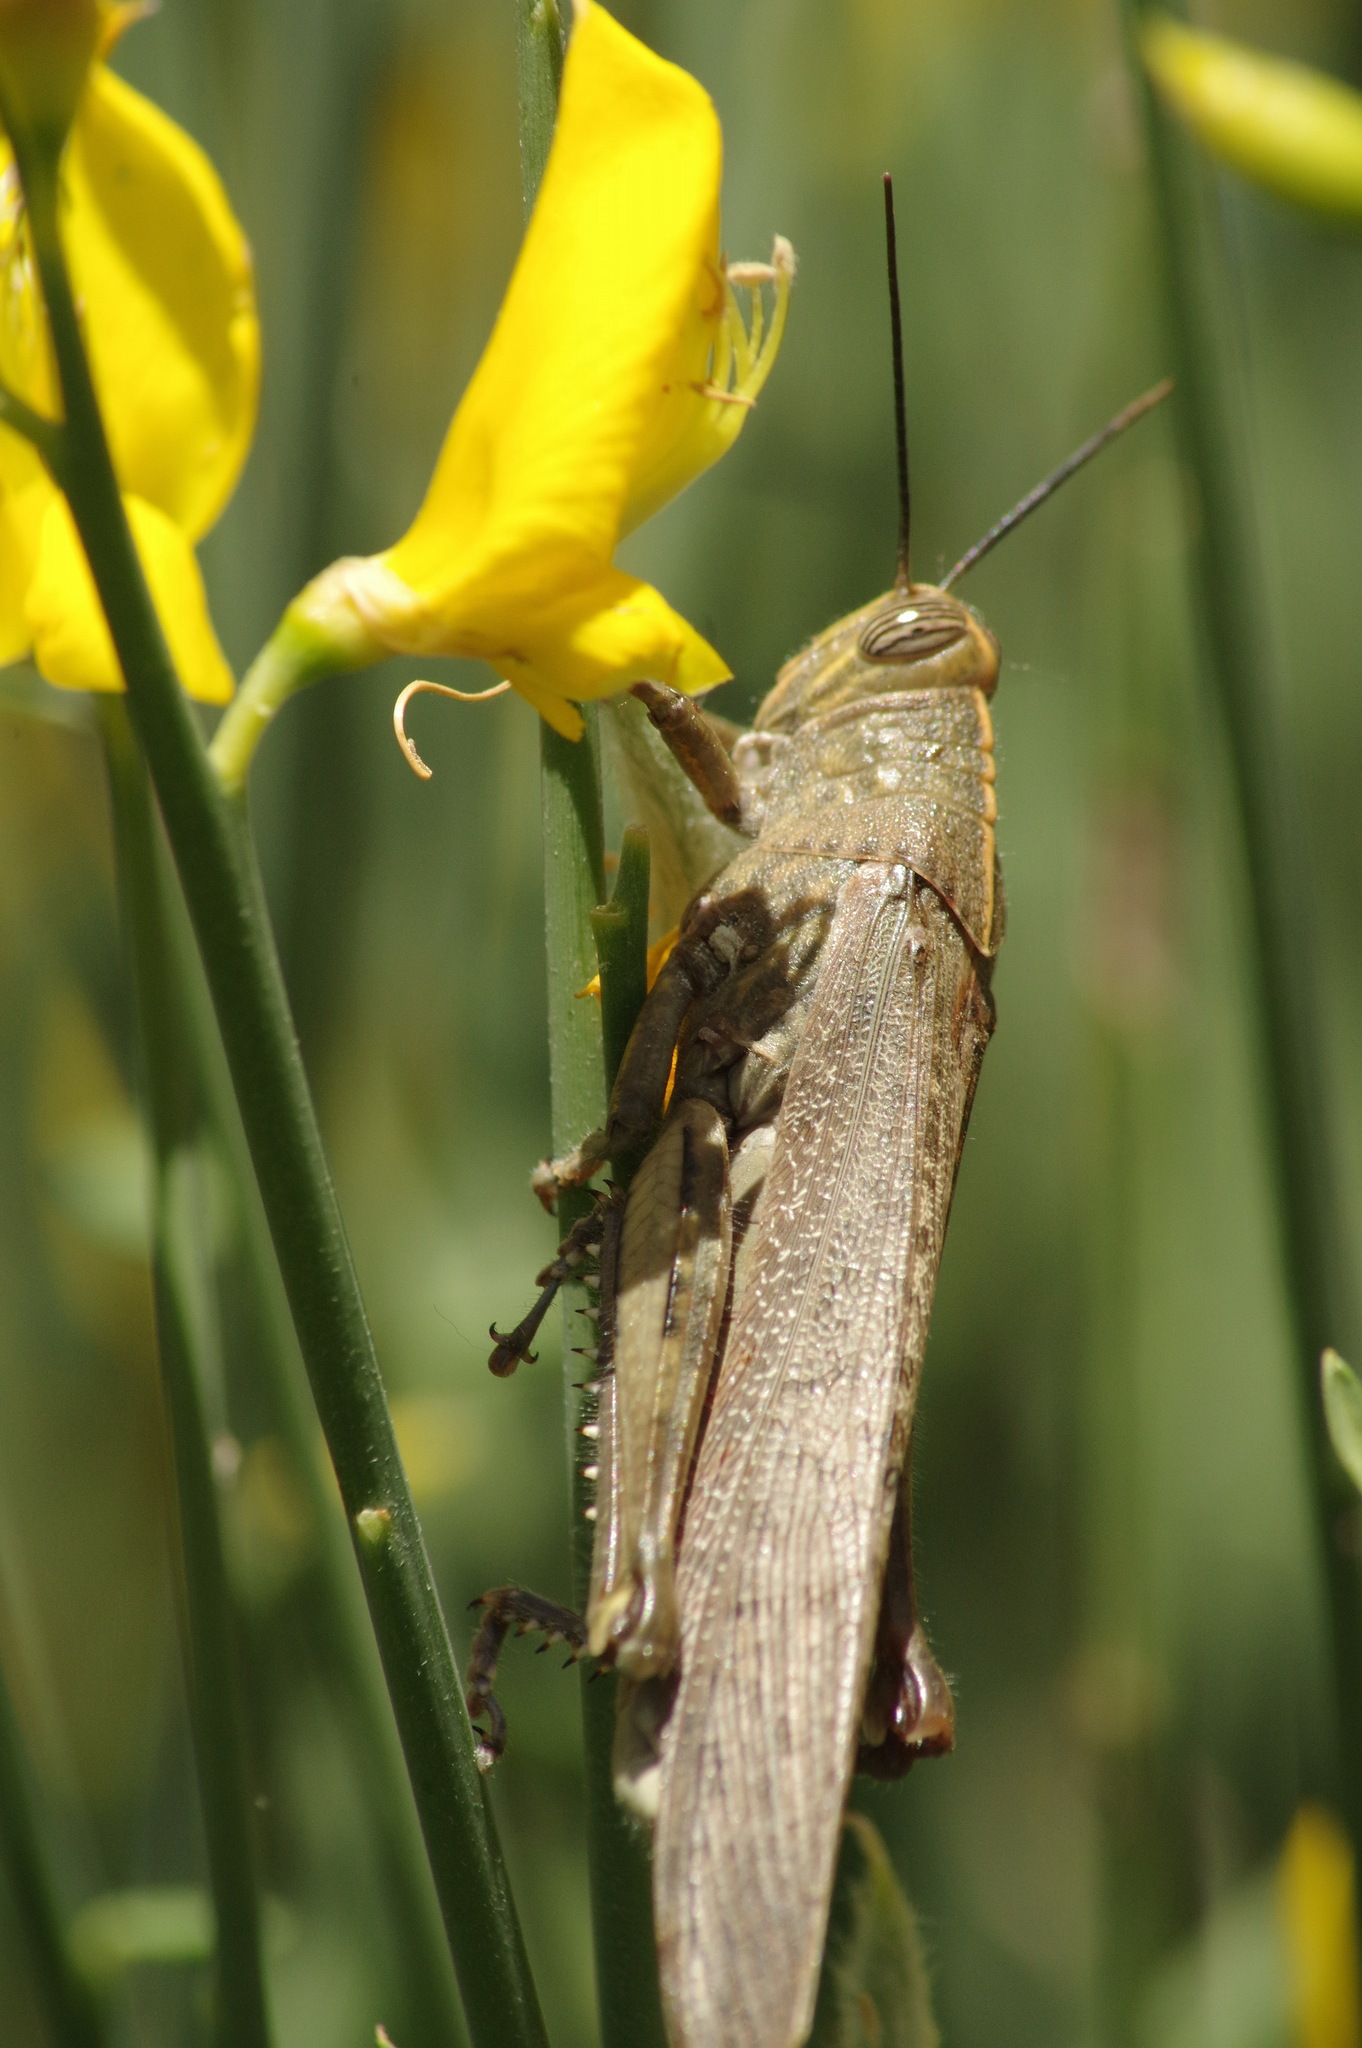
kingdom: Animalia
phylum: Arthropoda
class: Insecta
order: Orthoptera
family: Acrididae
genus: Anacridium
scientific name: Anacridium aegyptium
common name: Egyptian grasshopper
